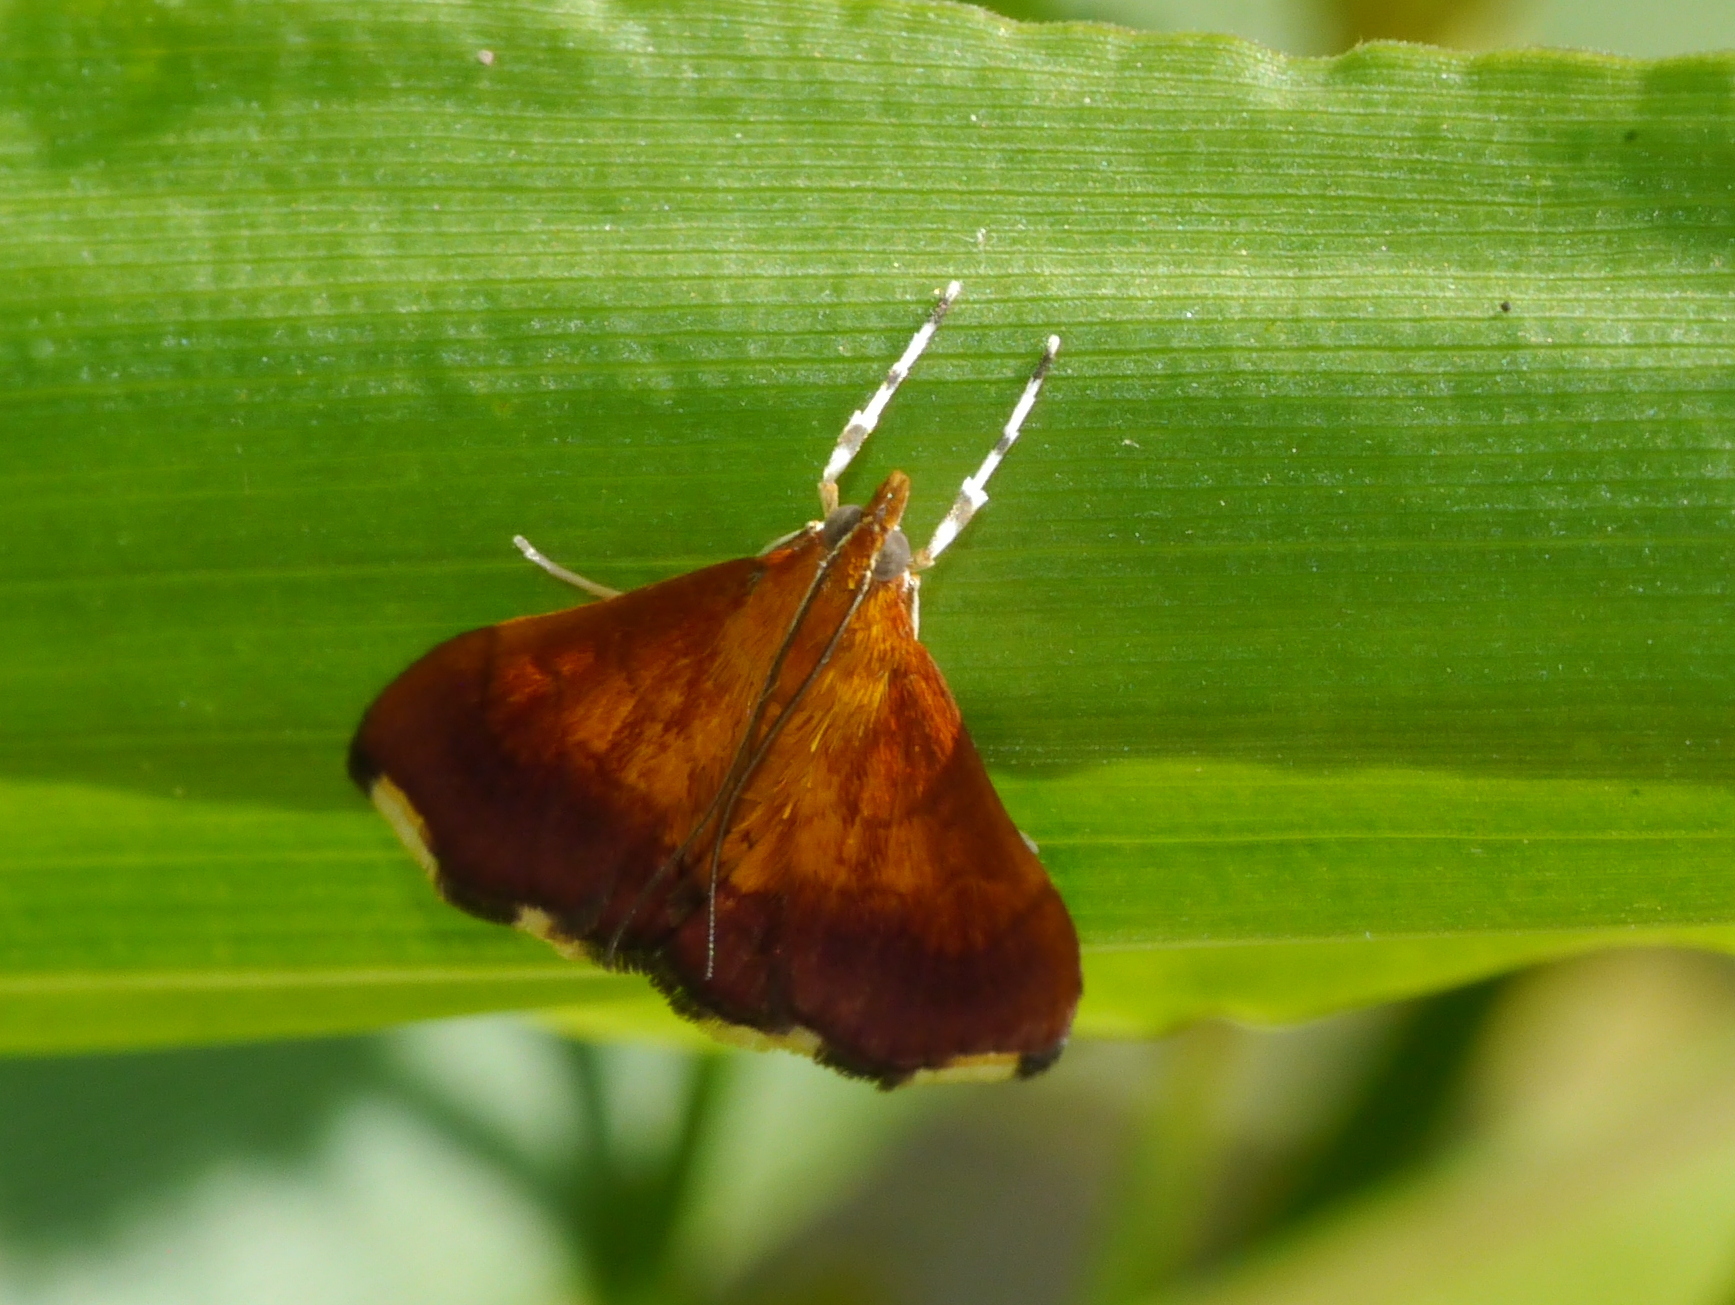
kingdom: Animalia
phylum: Arthropoda
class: Insecta
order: Lepidoptera
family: Crambidae
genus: Pyrausta
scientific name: Pyrausta bicoloralis
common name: Bicolored pyrausta moth
